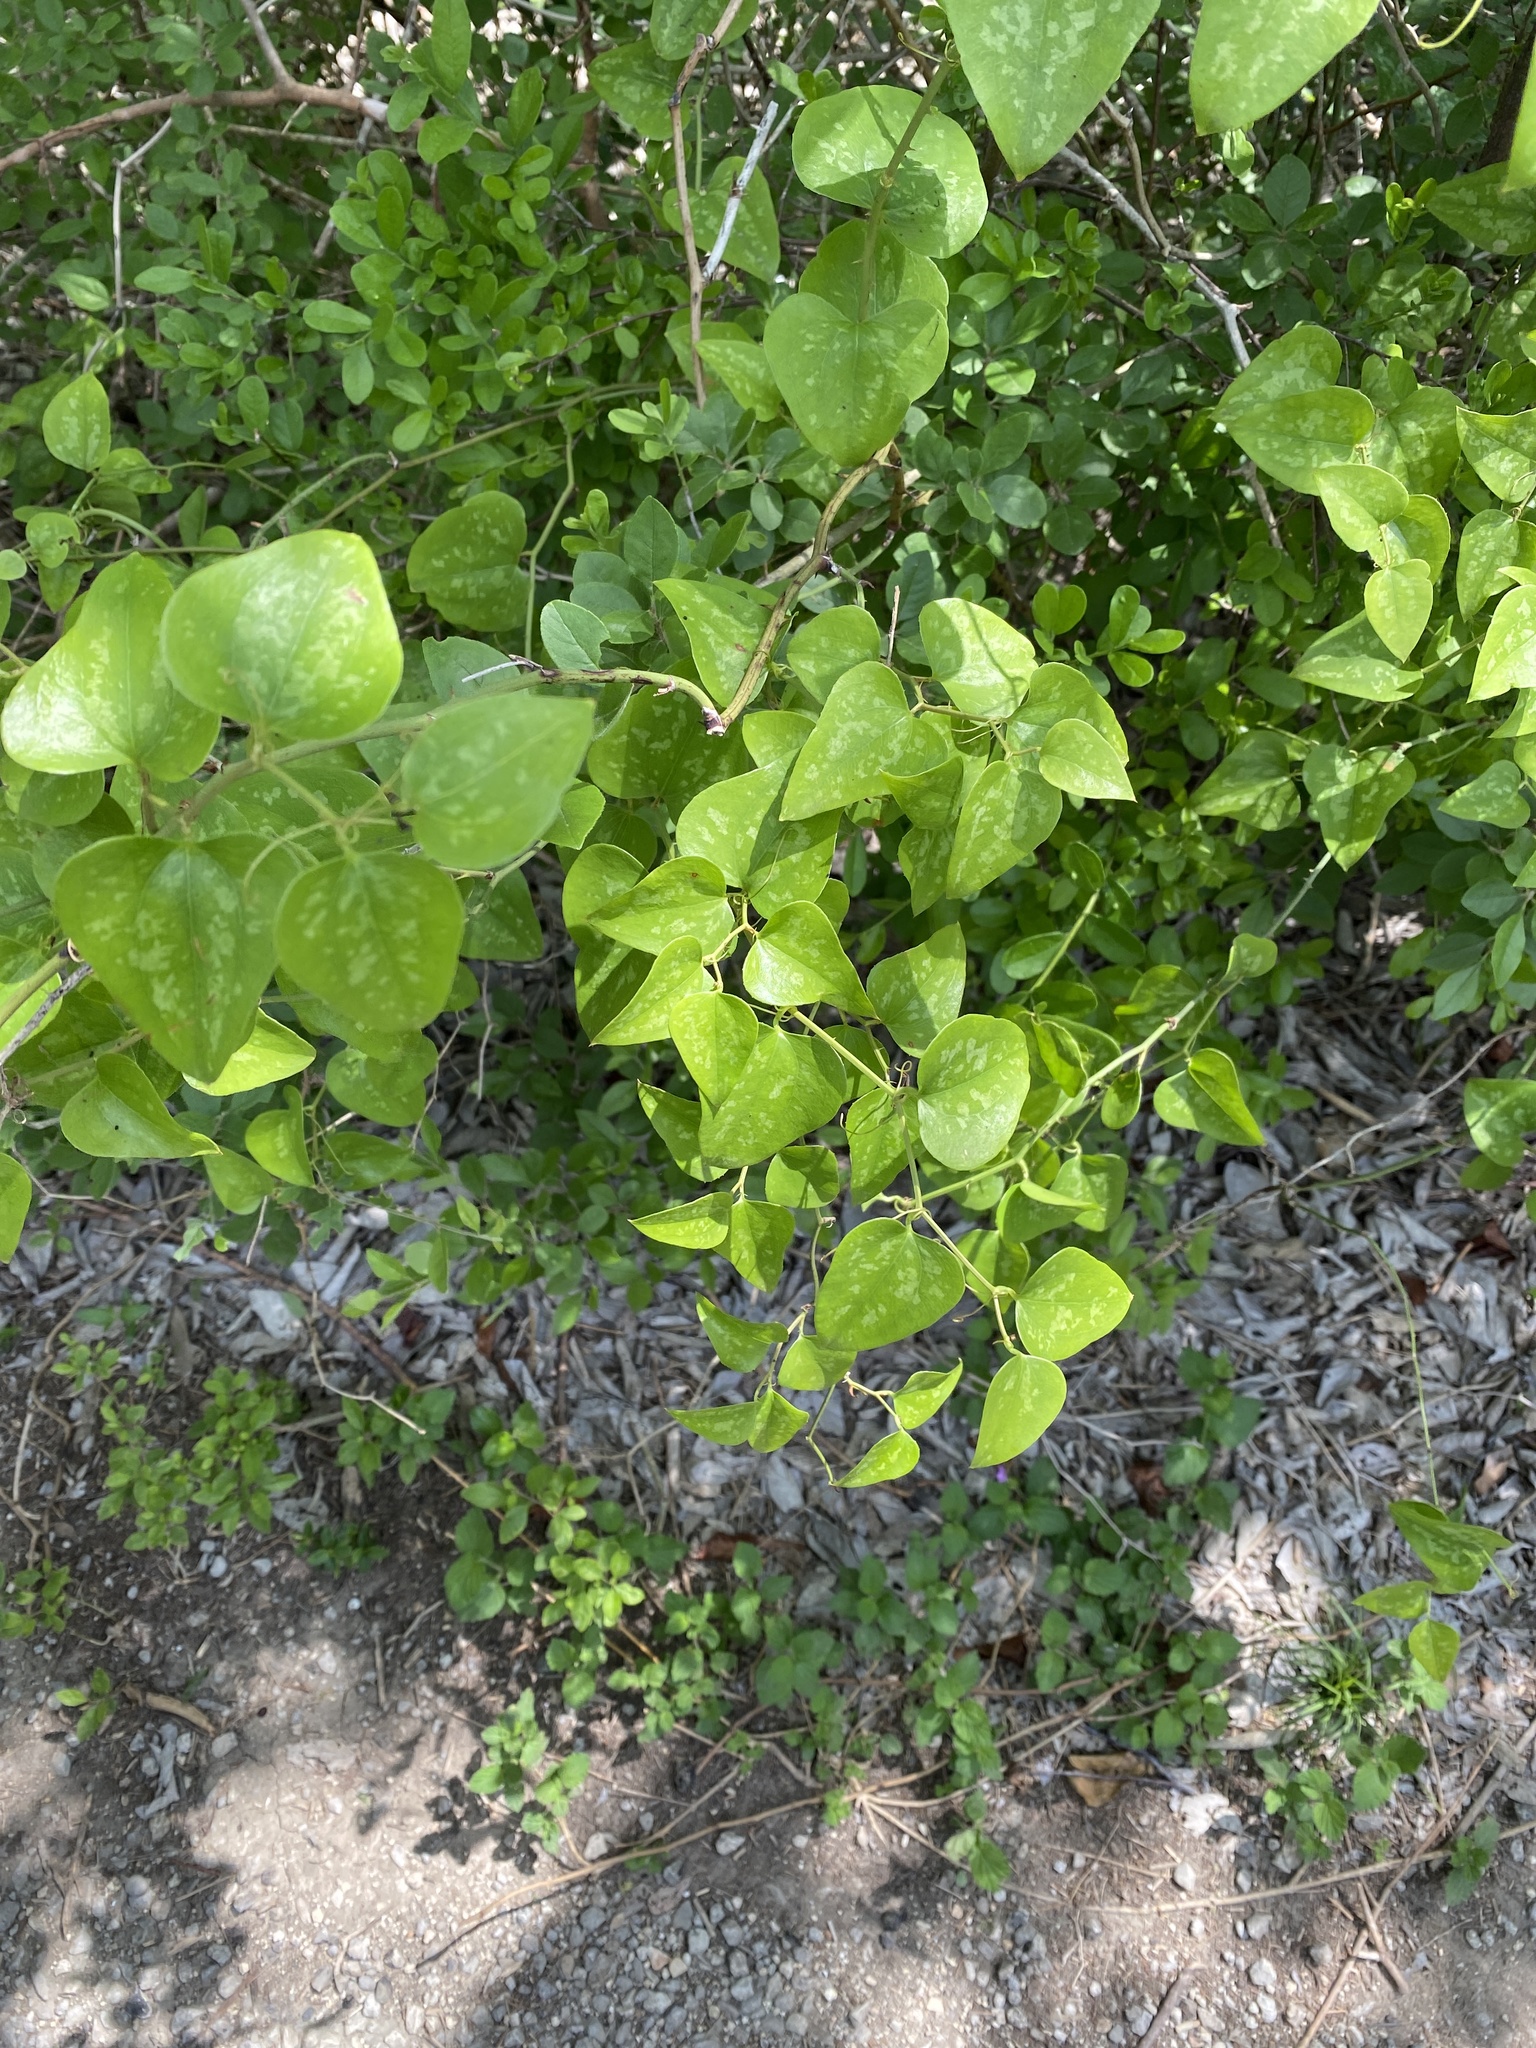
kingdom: Plantae
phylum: Tracheophyta
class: Liliopsida
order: Liliales
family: Smilacaceae
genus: Smilax
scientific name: Smilax bona-nox
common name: Catbrier
